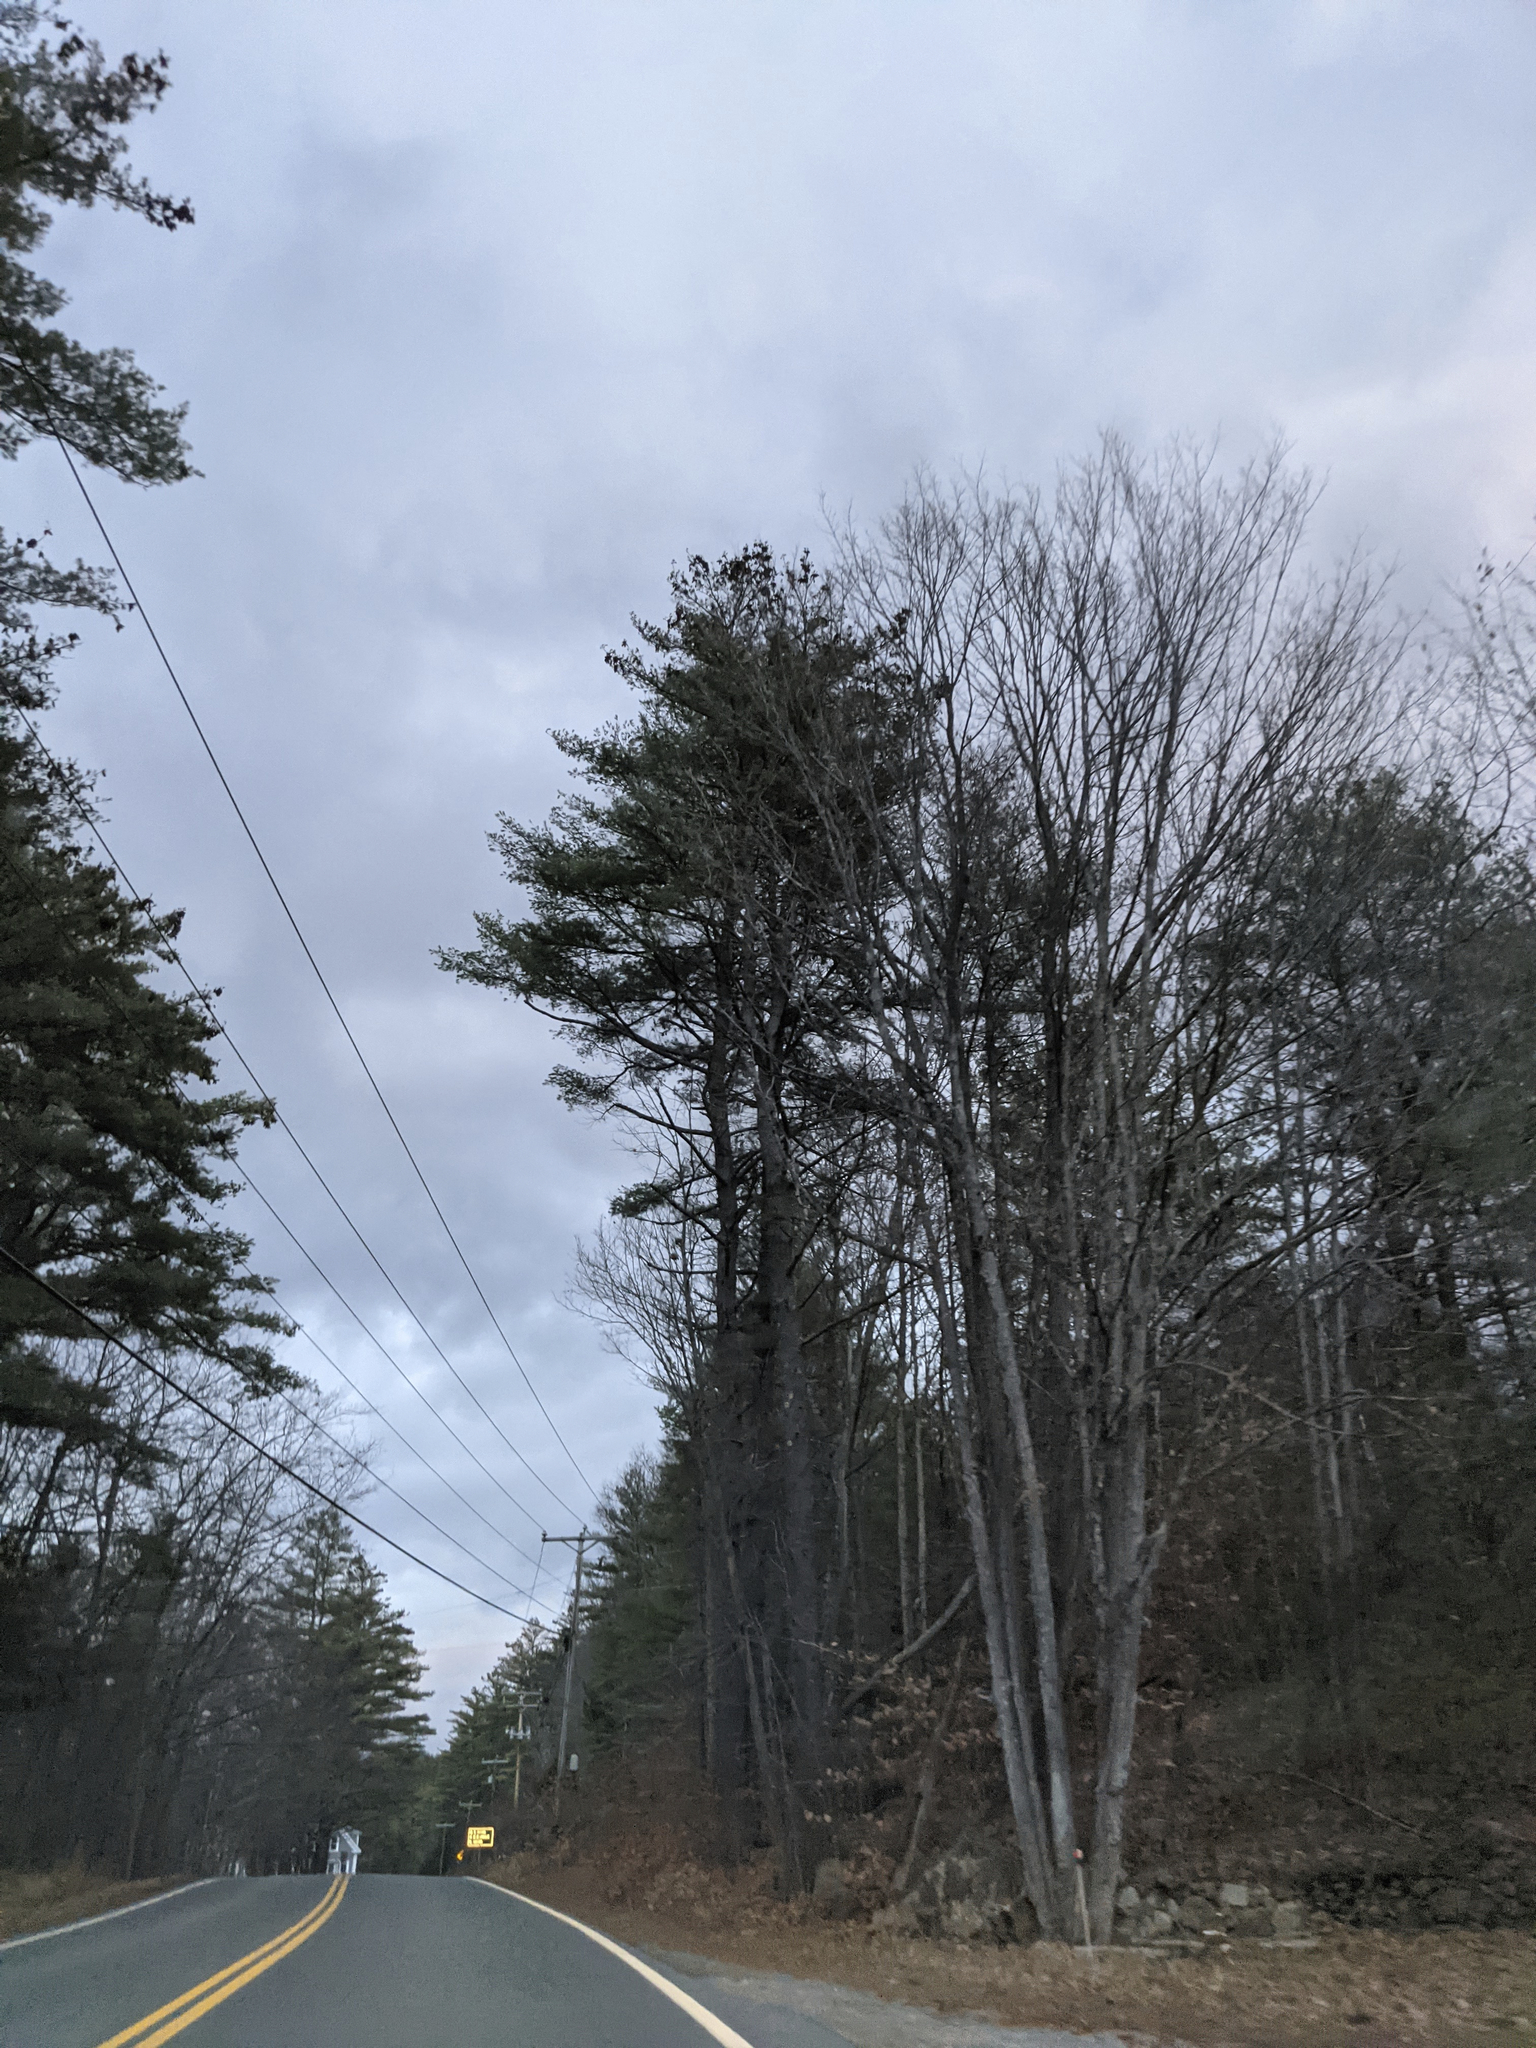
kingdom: Plantae
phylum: Tracheophyta
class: Pinopsida
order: Pinales
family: Pinaceae
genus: Pinus
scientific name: Pinus strobus
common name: Weymouth pine
